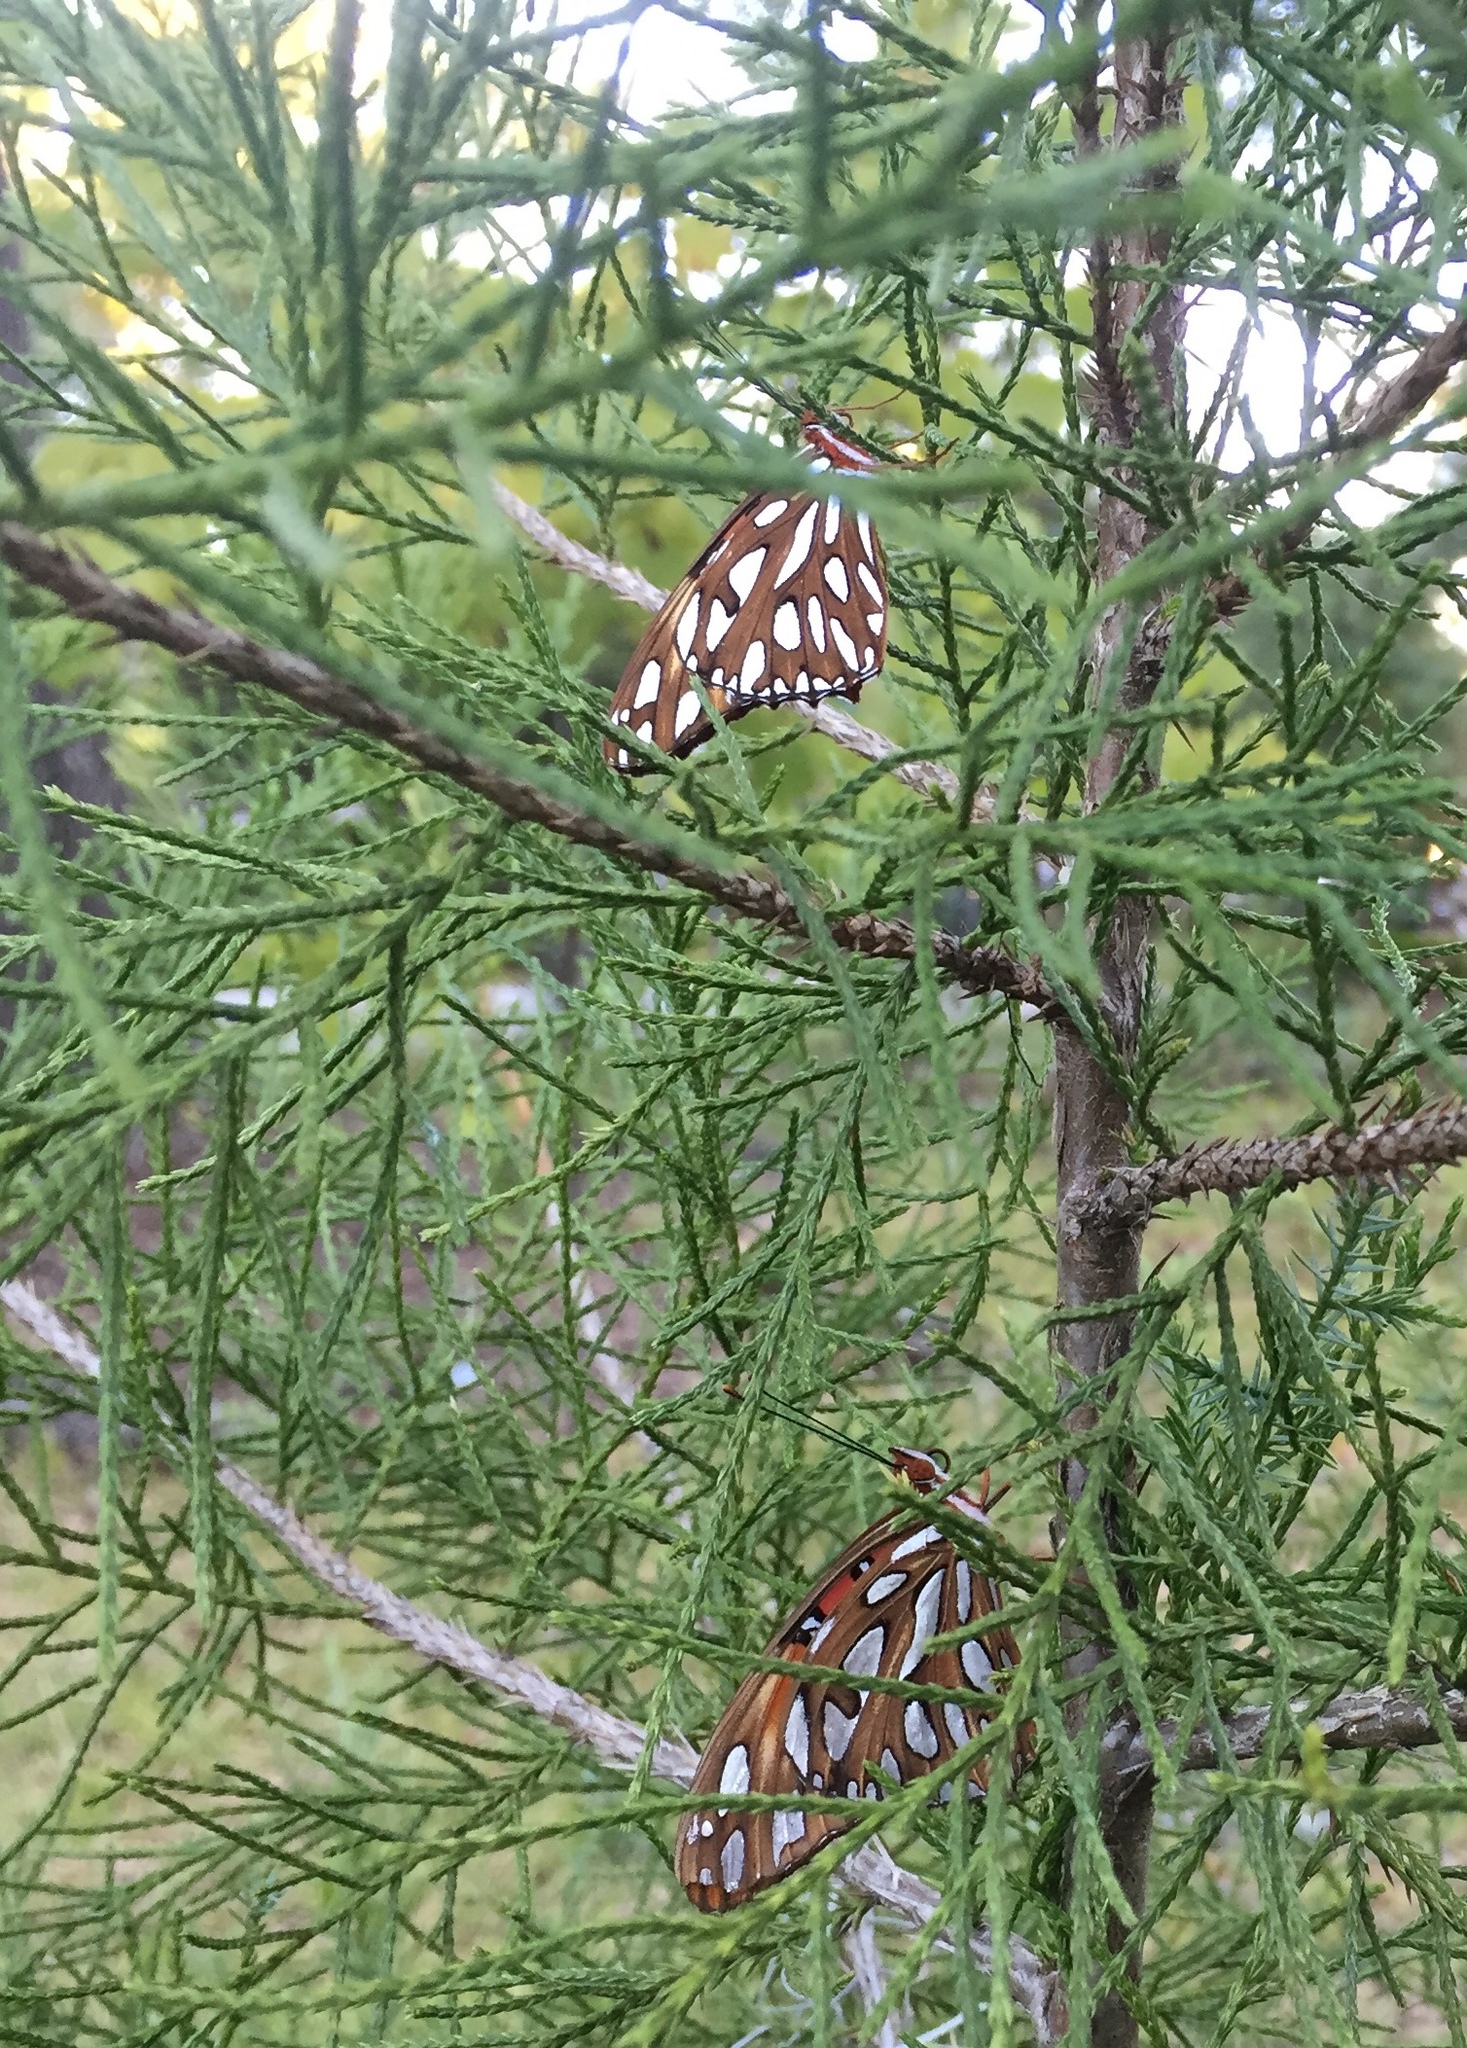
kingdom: Animalia
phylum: Arthropoda
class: Insecta
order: Lepidoptera
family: Nymphalidae
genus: Dione
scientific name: Dione vanillae
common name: Gulf fritillary
